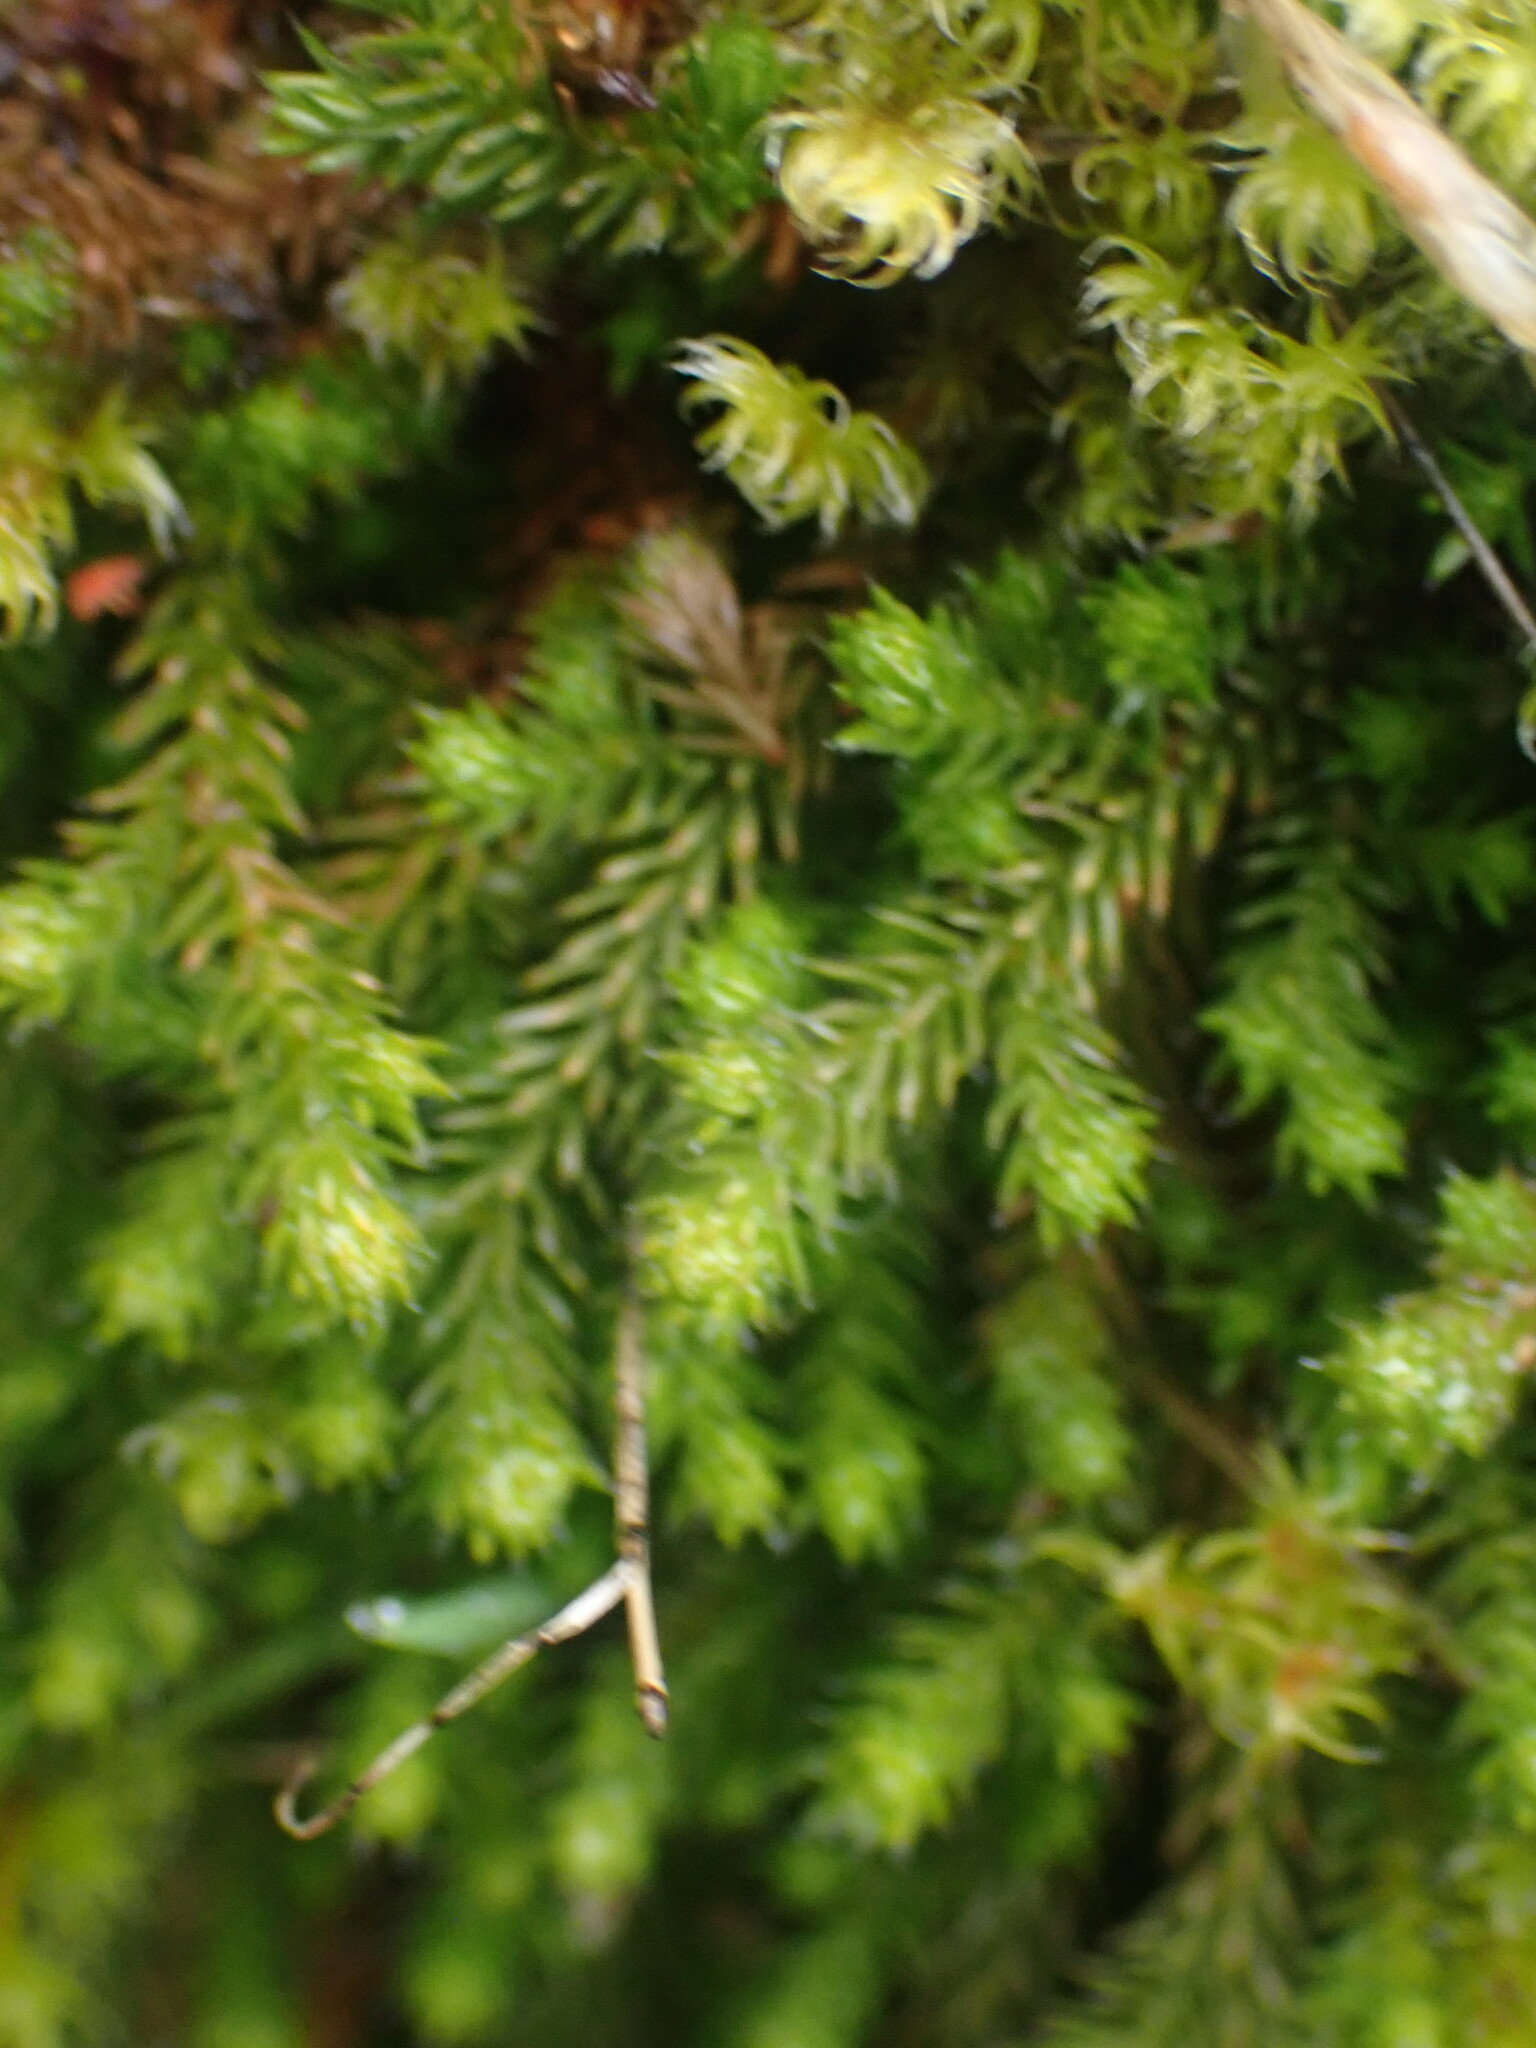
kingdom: Plantae
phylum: Tracheophyta
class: Lycopodiopsida
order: Selaginellales
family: Selaginellaceae
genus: Selaginella
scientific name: Selaginella wallacei
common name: Wallace's selaginella
